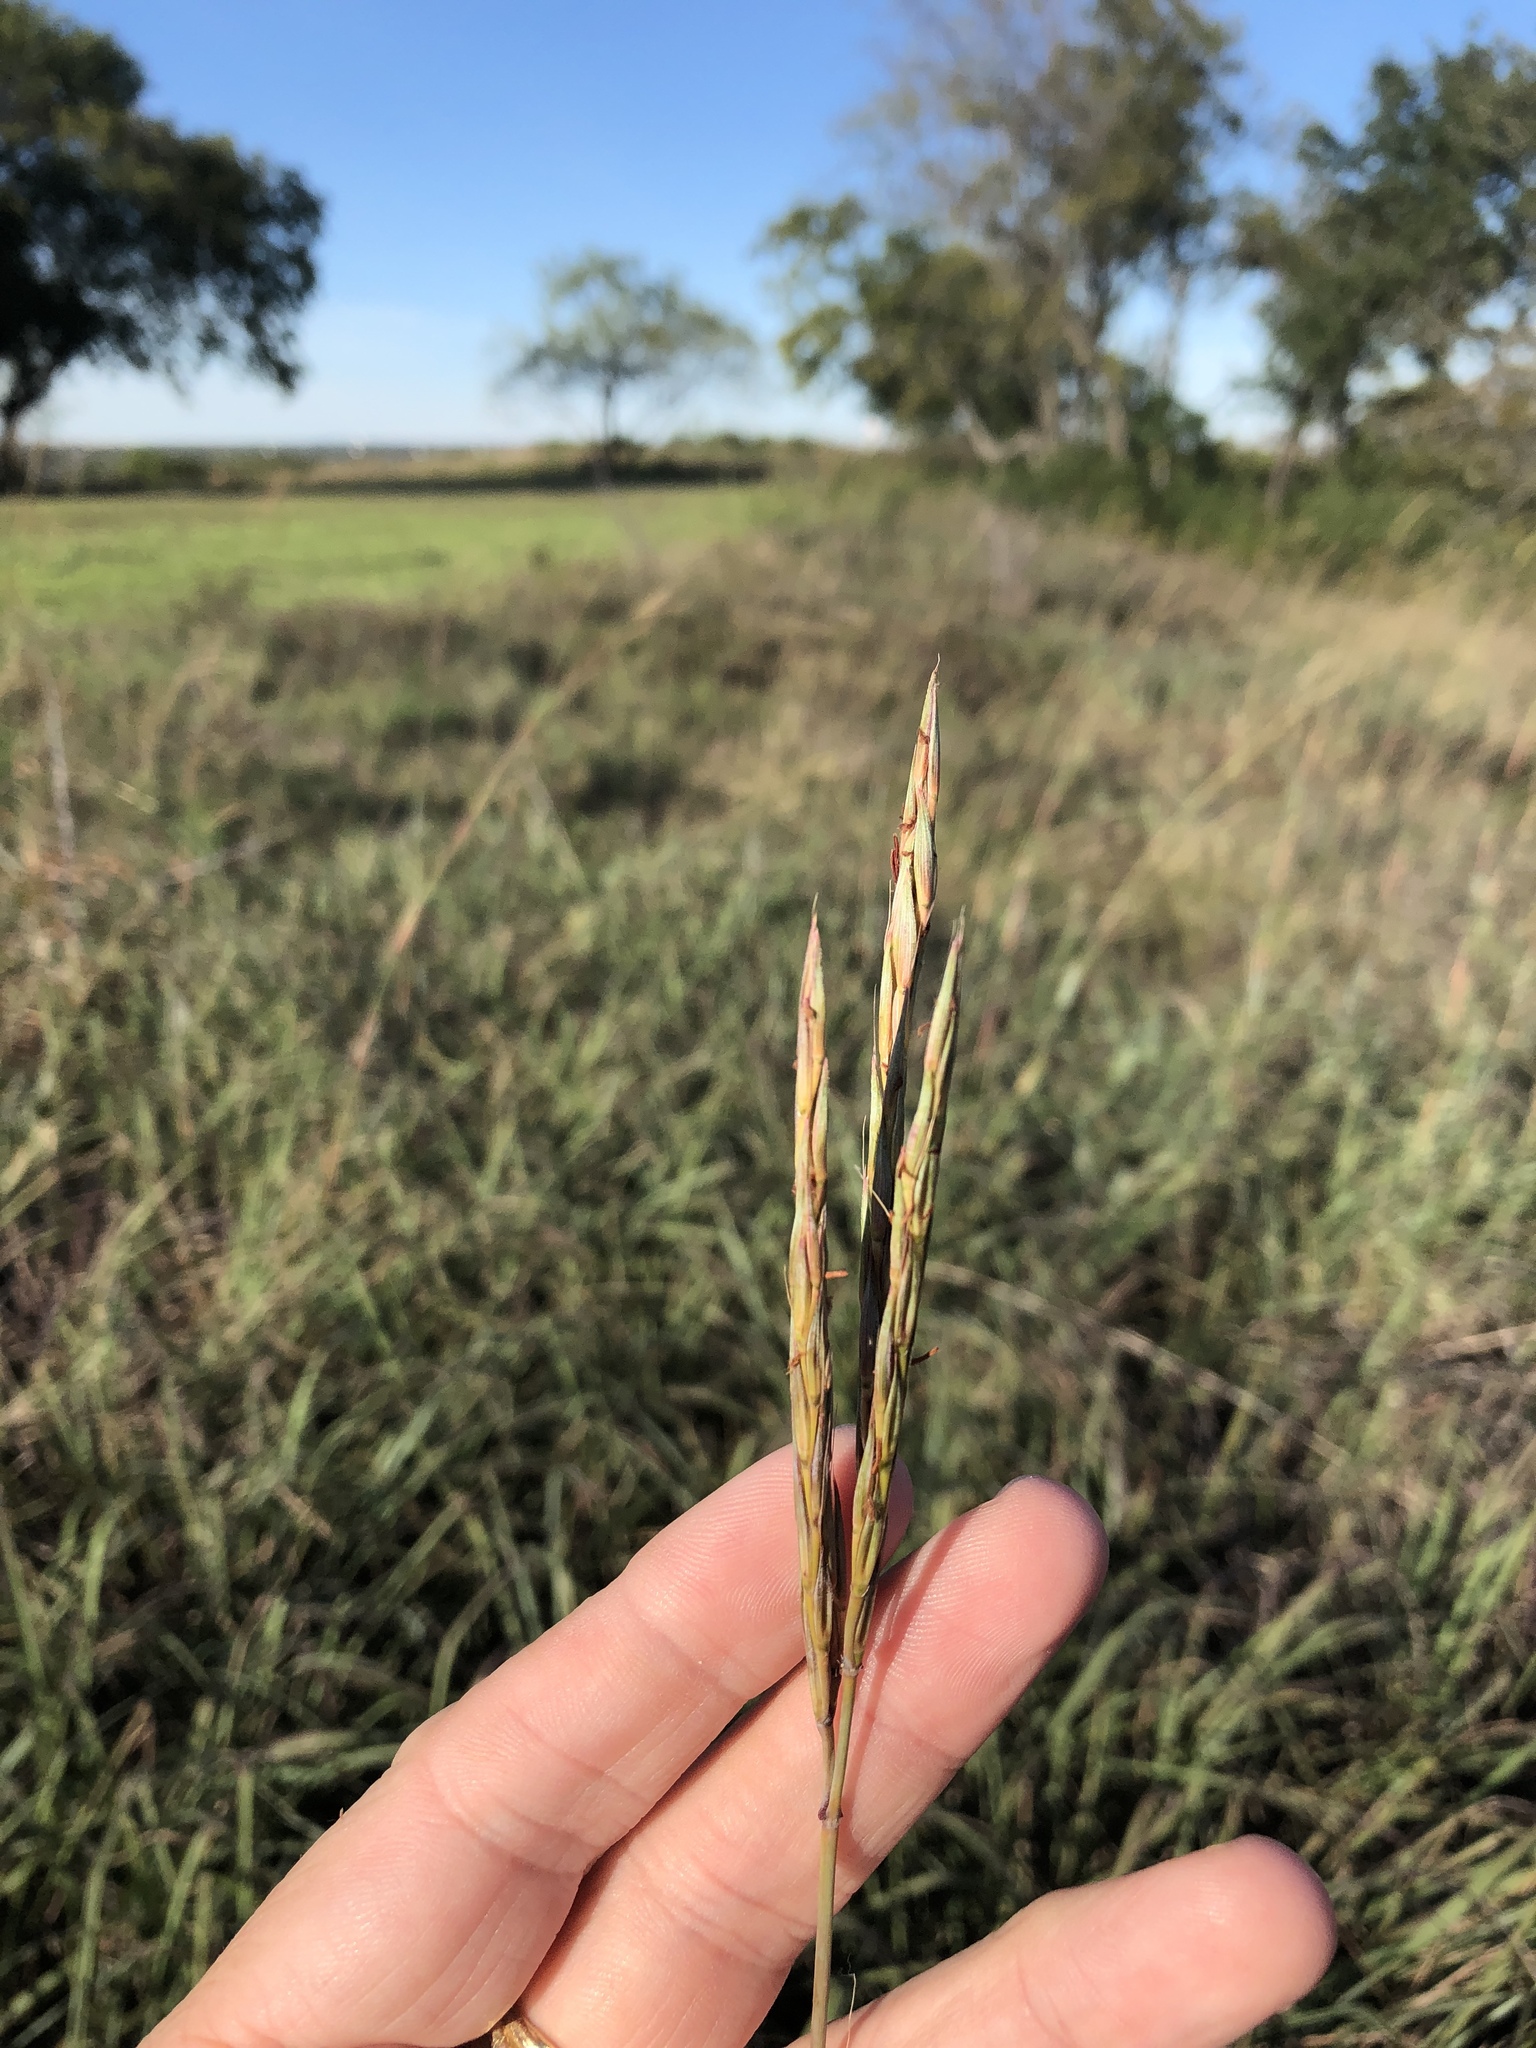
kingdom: Plantae
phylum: Tracheophyta
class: Liliopsida
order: Poales
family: Poaceae
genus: Andropogon
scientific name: Andropogon gerardi
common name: Big bluestem
